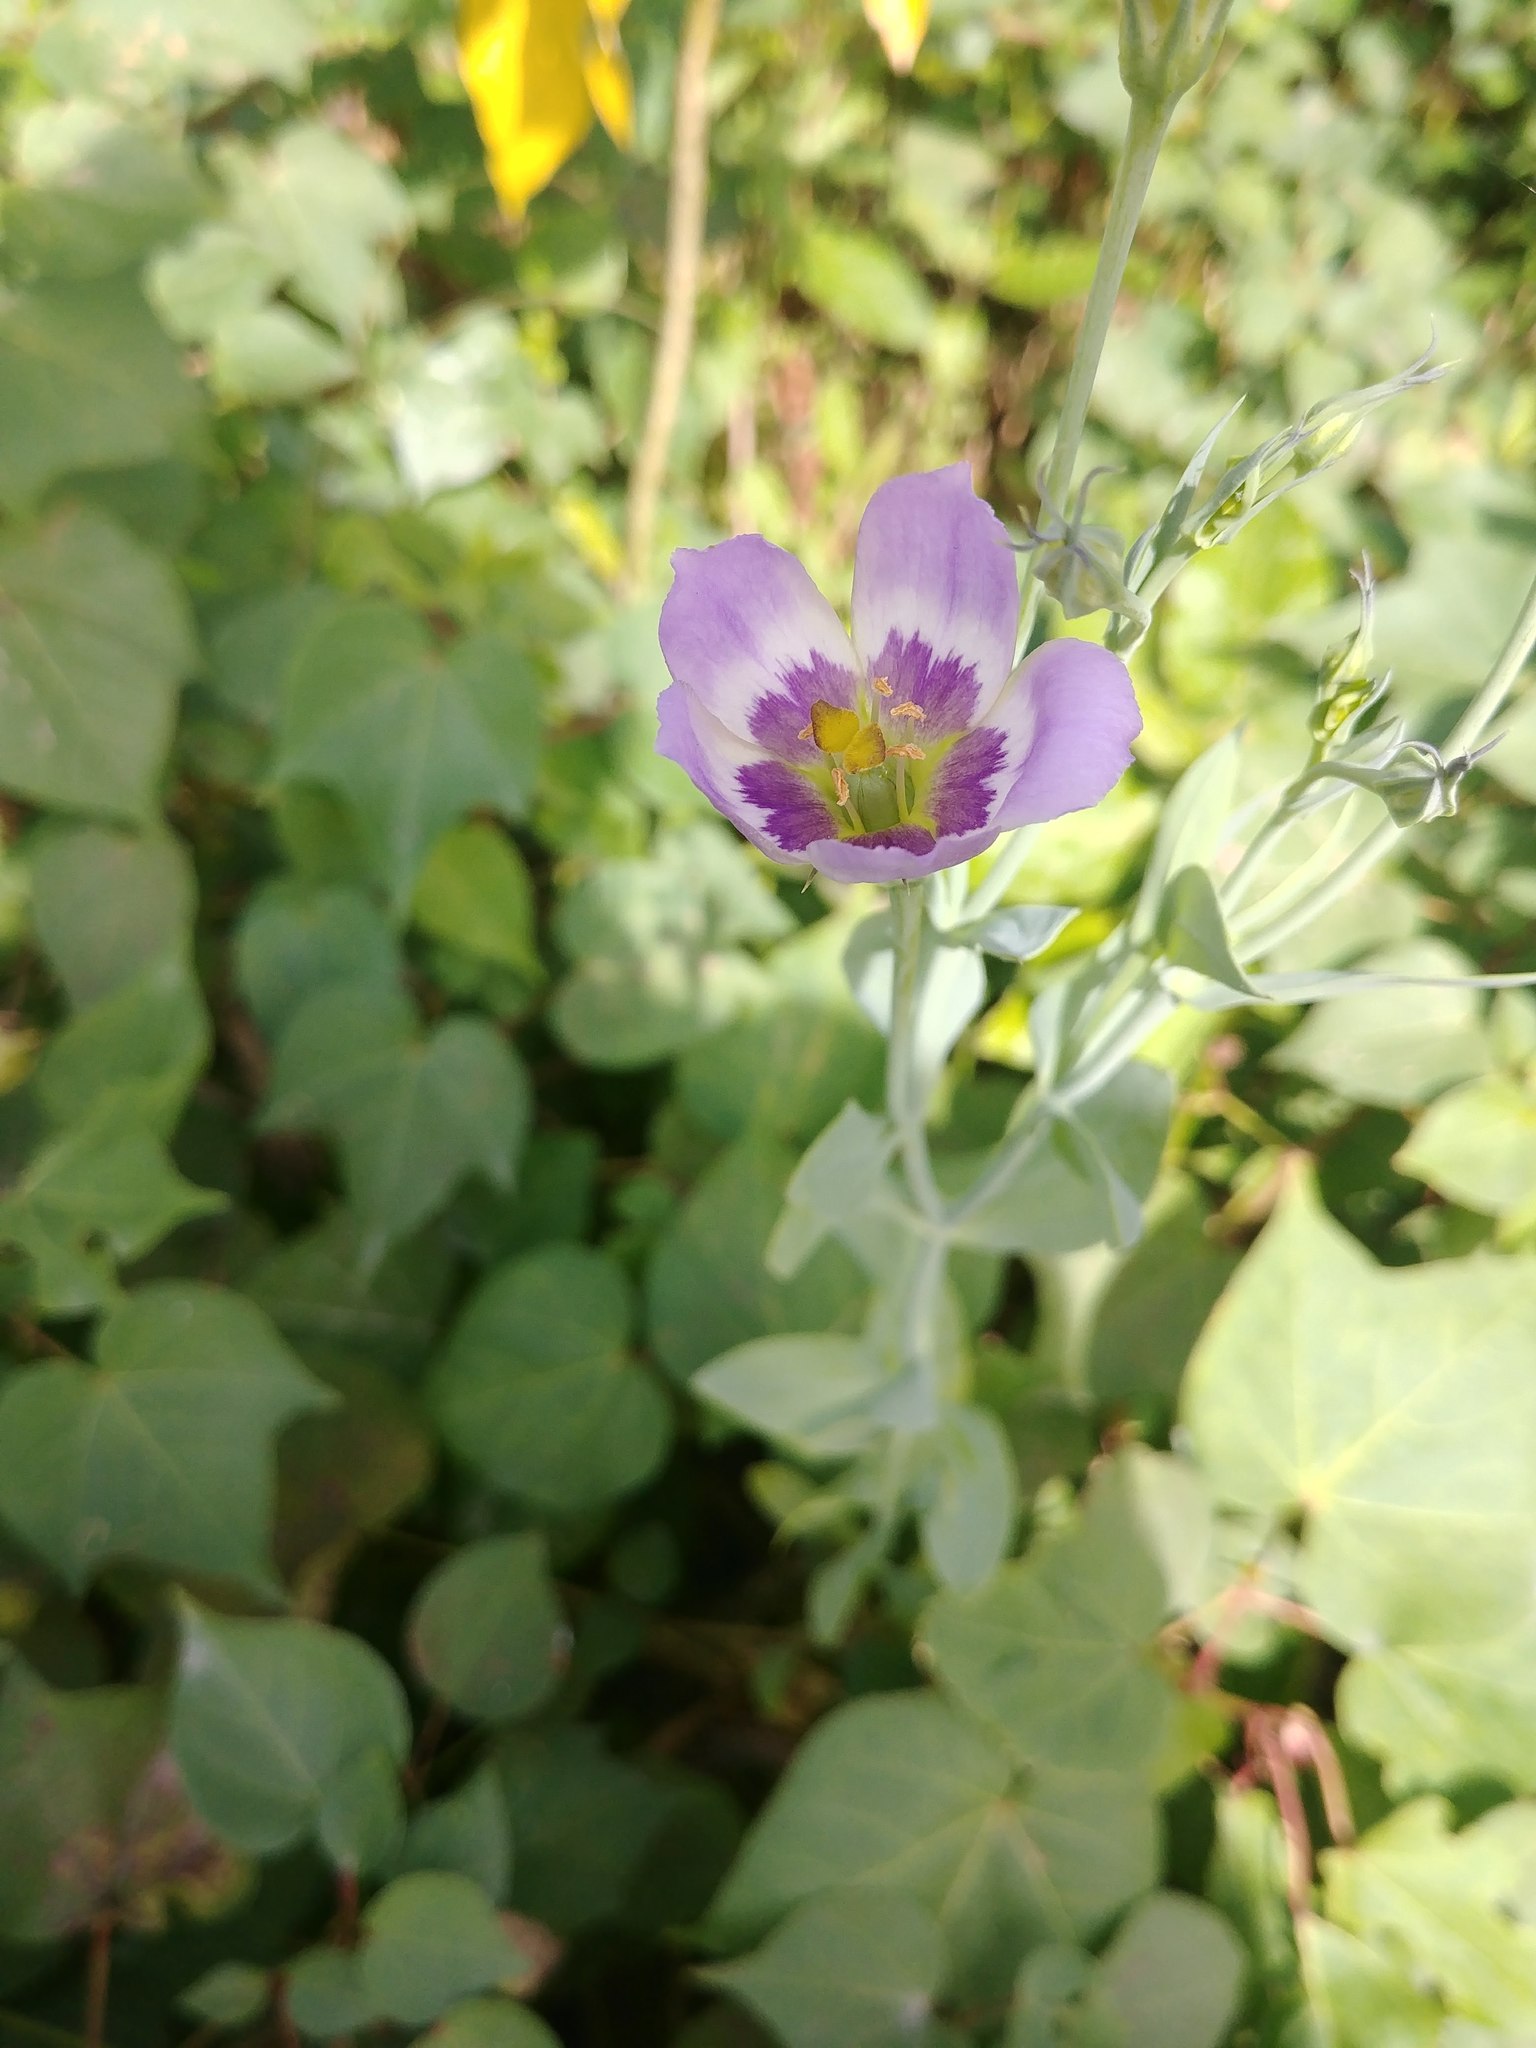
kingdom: Plantae
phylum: Tracheophyta
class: Magnoliopsida
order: Gentianales
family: Gentianaceae
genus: Eustoma
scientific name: Eustoma exaltatum
